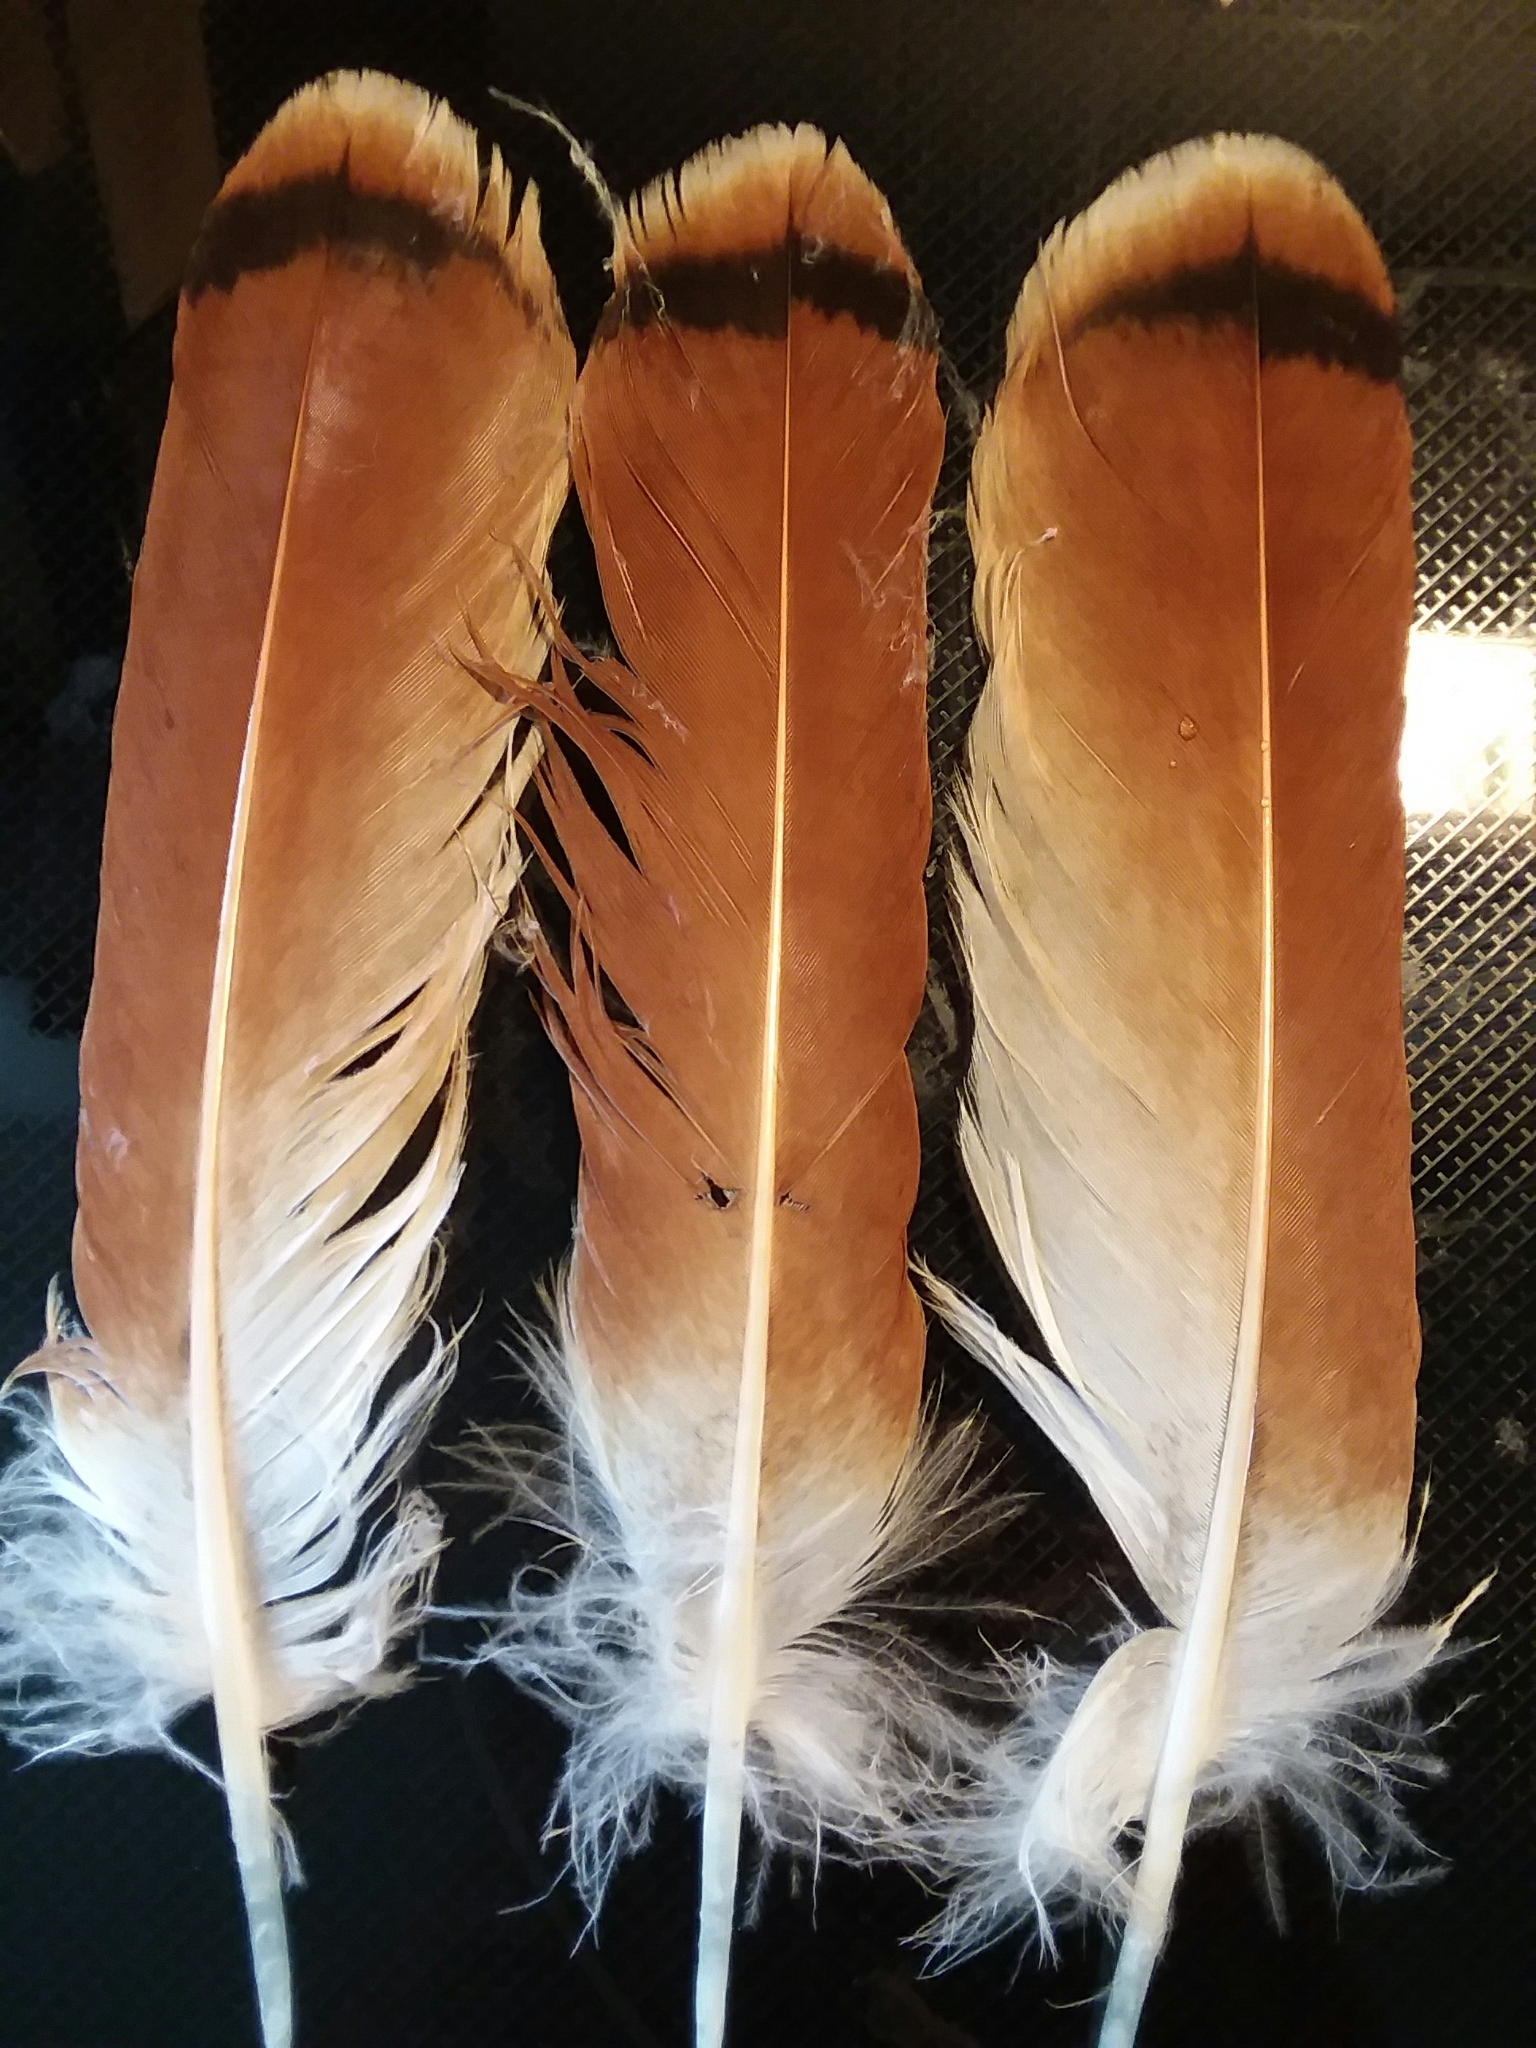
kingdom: Animalia
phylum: Chordata
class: Aves
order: Accipitriformes
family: Accipitridae
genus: Buteo
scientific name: Buteo jamaicensis
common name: Red-tailed hawk
